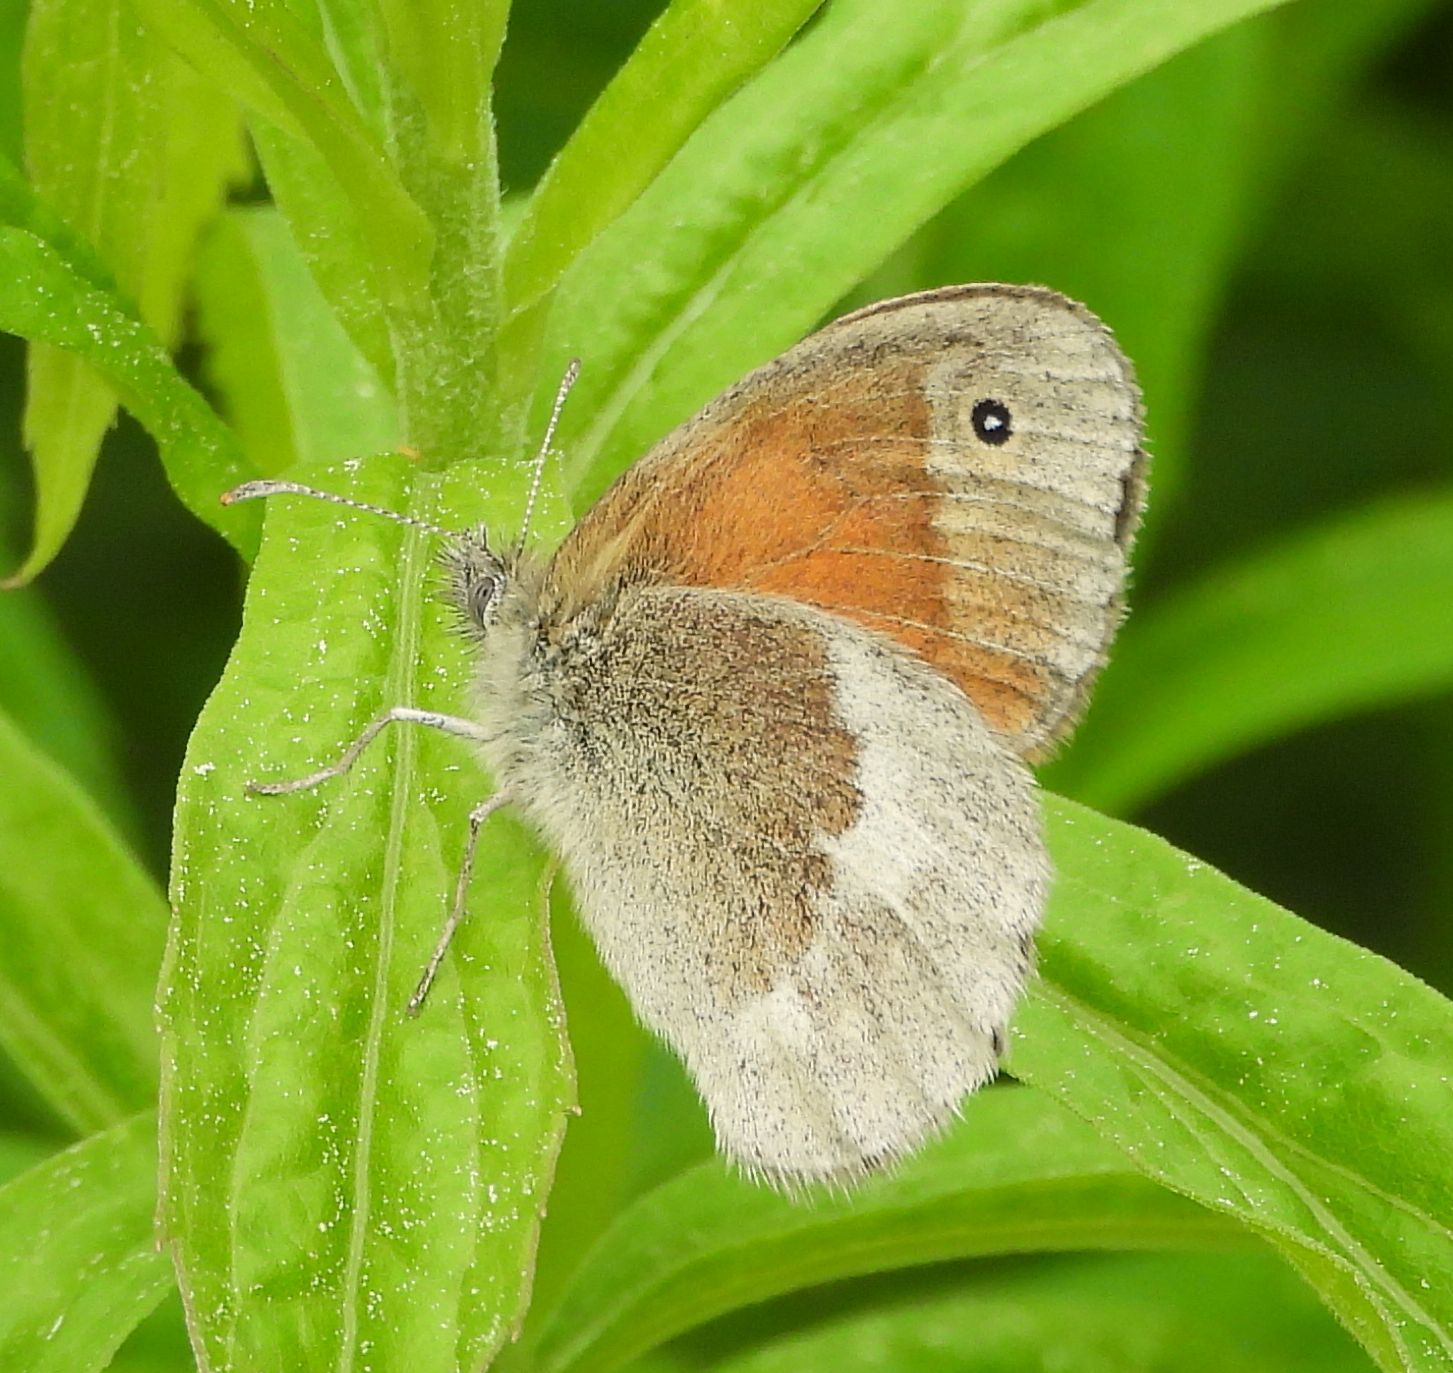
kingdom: Animalia
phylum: Arthropoda
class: Insecta
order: Lepidoptera
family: Nymphalidae
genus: Coenonympha
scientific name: Coenonympha california
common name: Common ringlet
